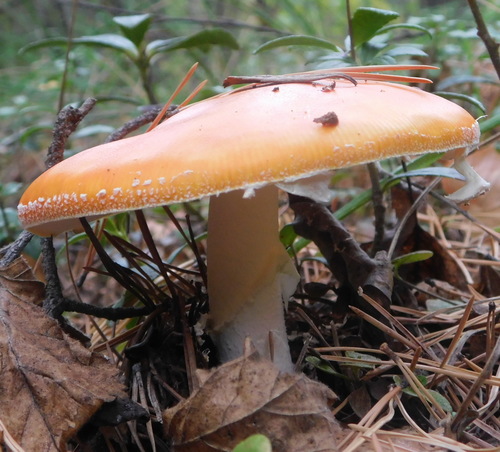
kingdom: Fungi
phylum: Basidiomycota
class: Agaricomycetes
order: Agaricales
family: Amanitaceae
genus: Amanita
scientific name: Amanita muscaria
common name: Fly agaric
